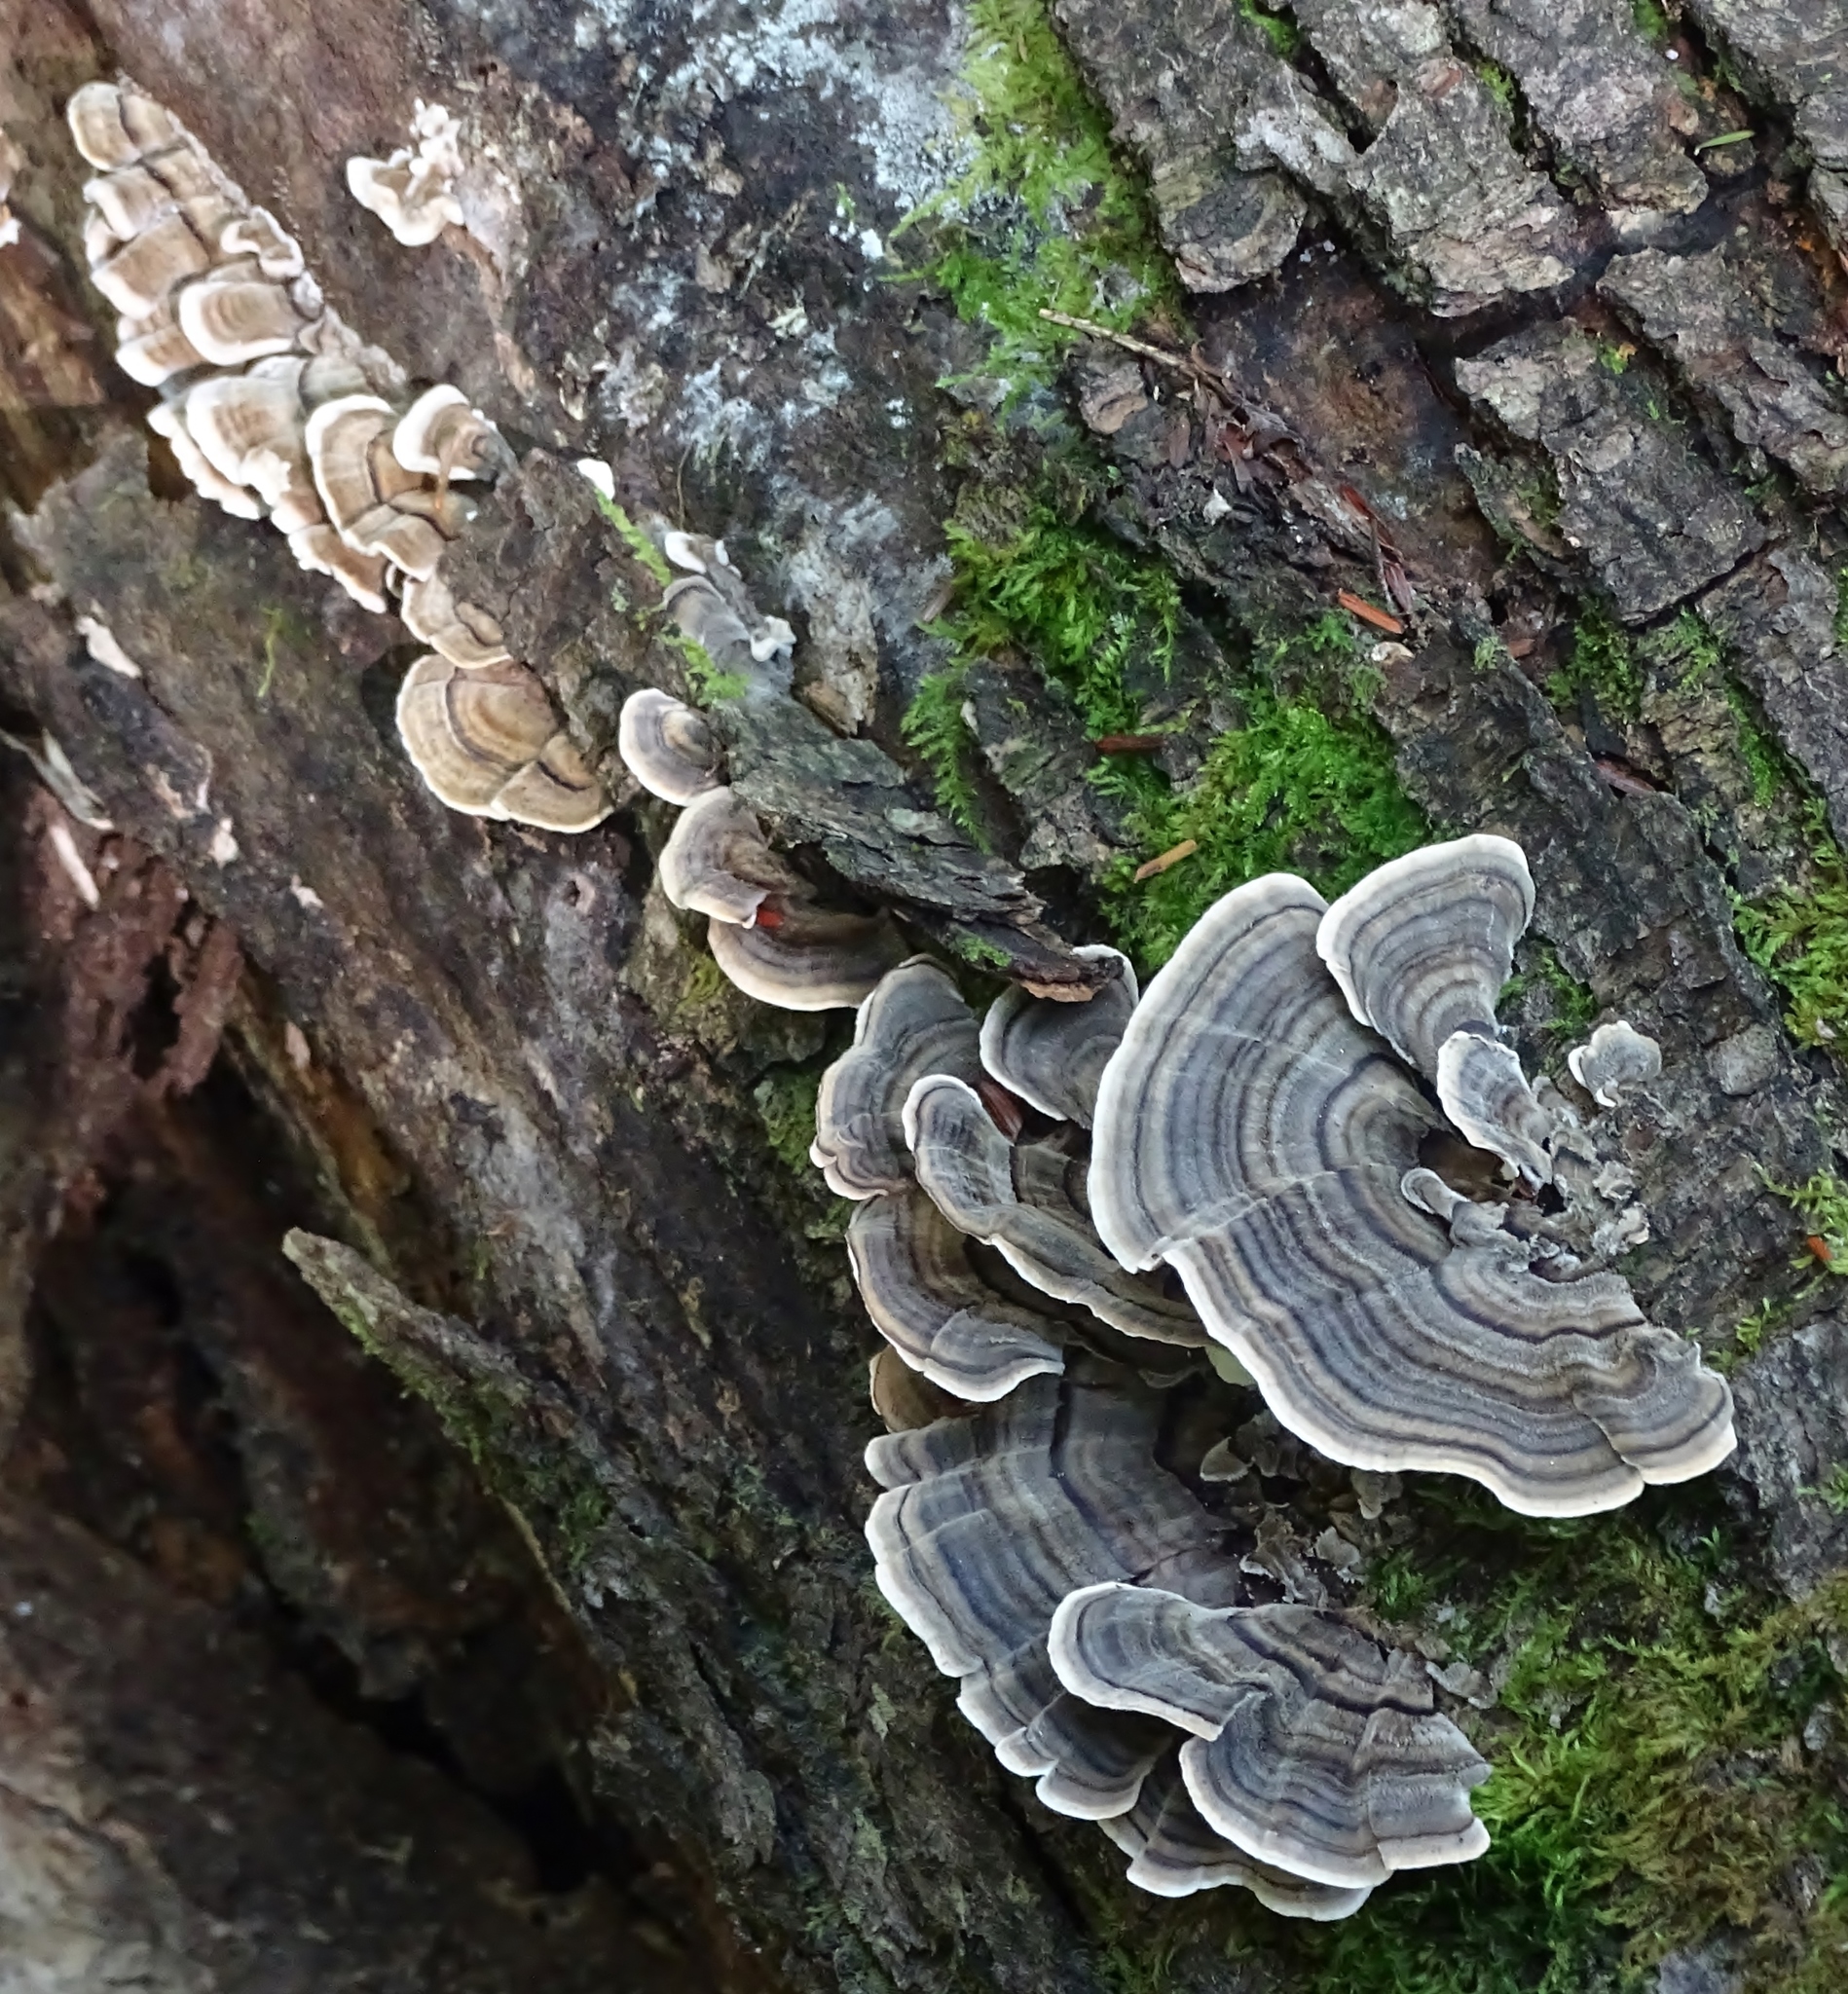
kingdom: Fungi
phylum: Basidiomycota
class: Agaricomycetes
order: Polyporales
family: Polyporaceae
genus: Trametes
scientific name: Trametes versicolor
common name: Turkeytail
